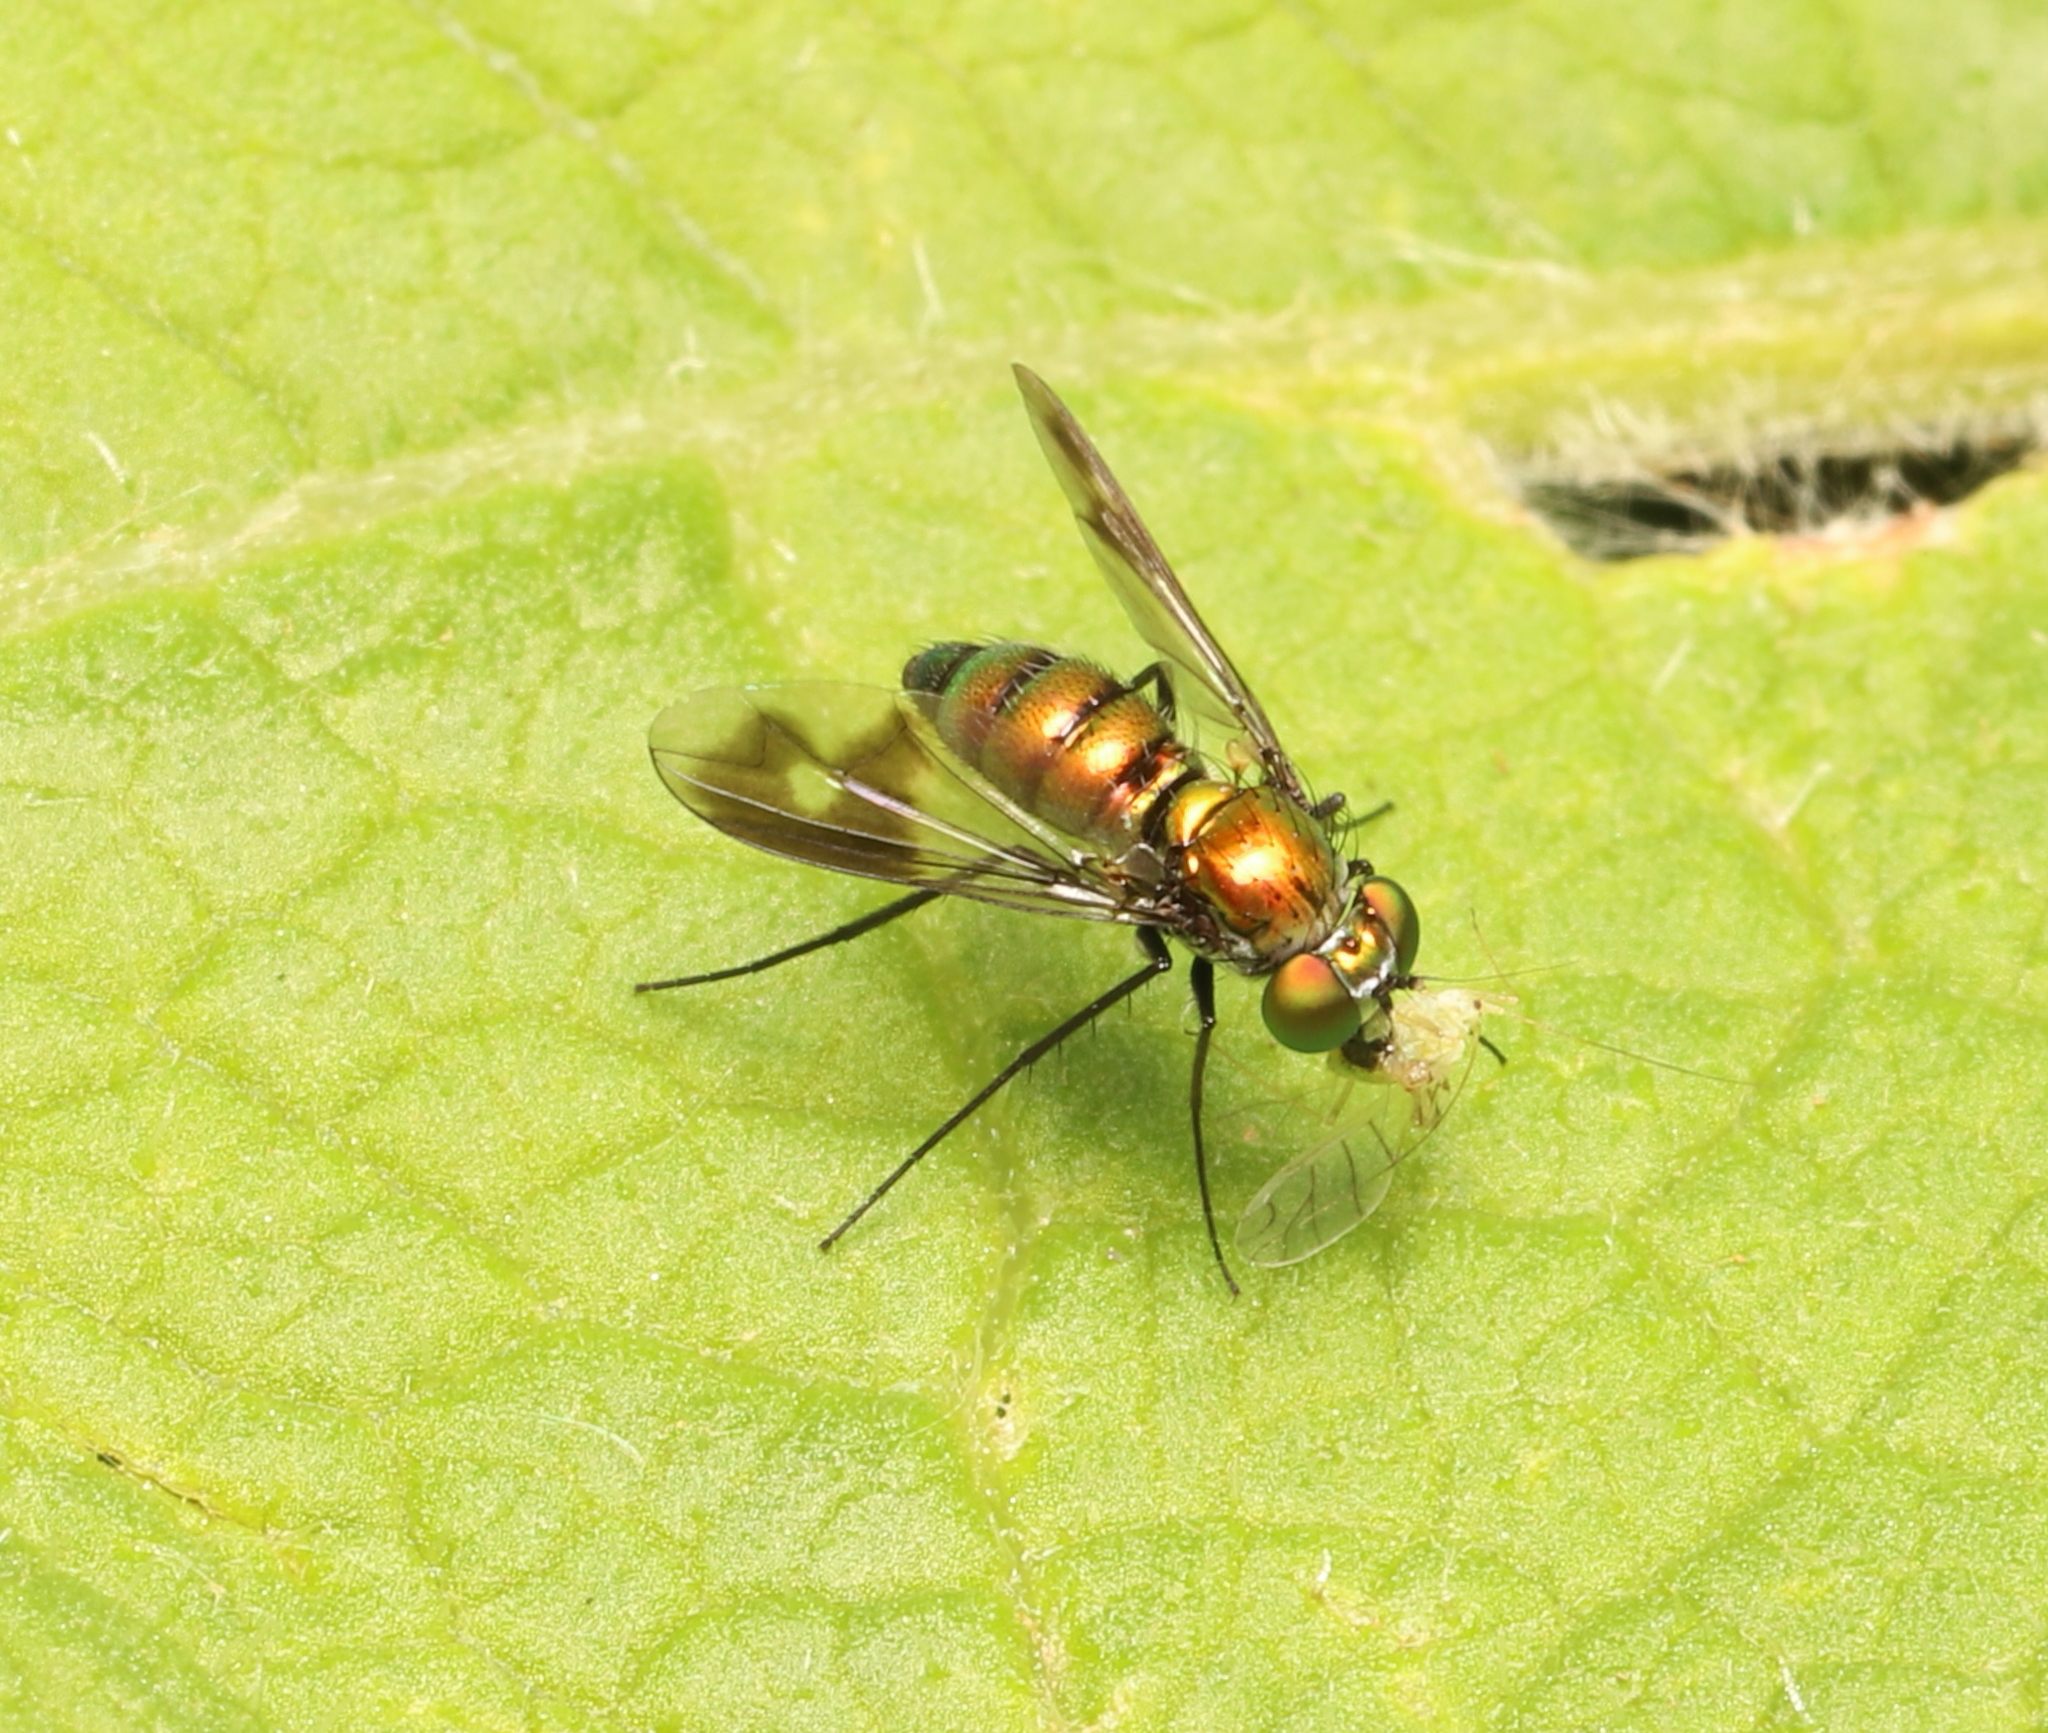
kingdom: Animalia
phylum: Arthropoda
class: Insecta
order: Diptera
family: Dolichopodidae
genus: Condylostylus
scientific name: Condylostylus patibulatus
